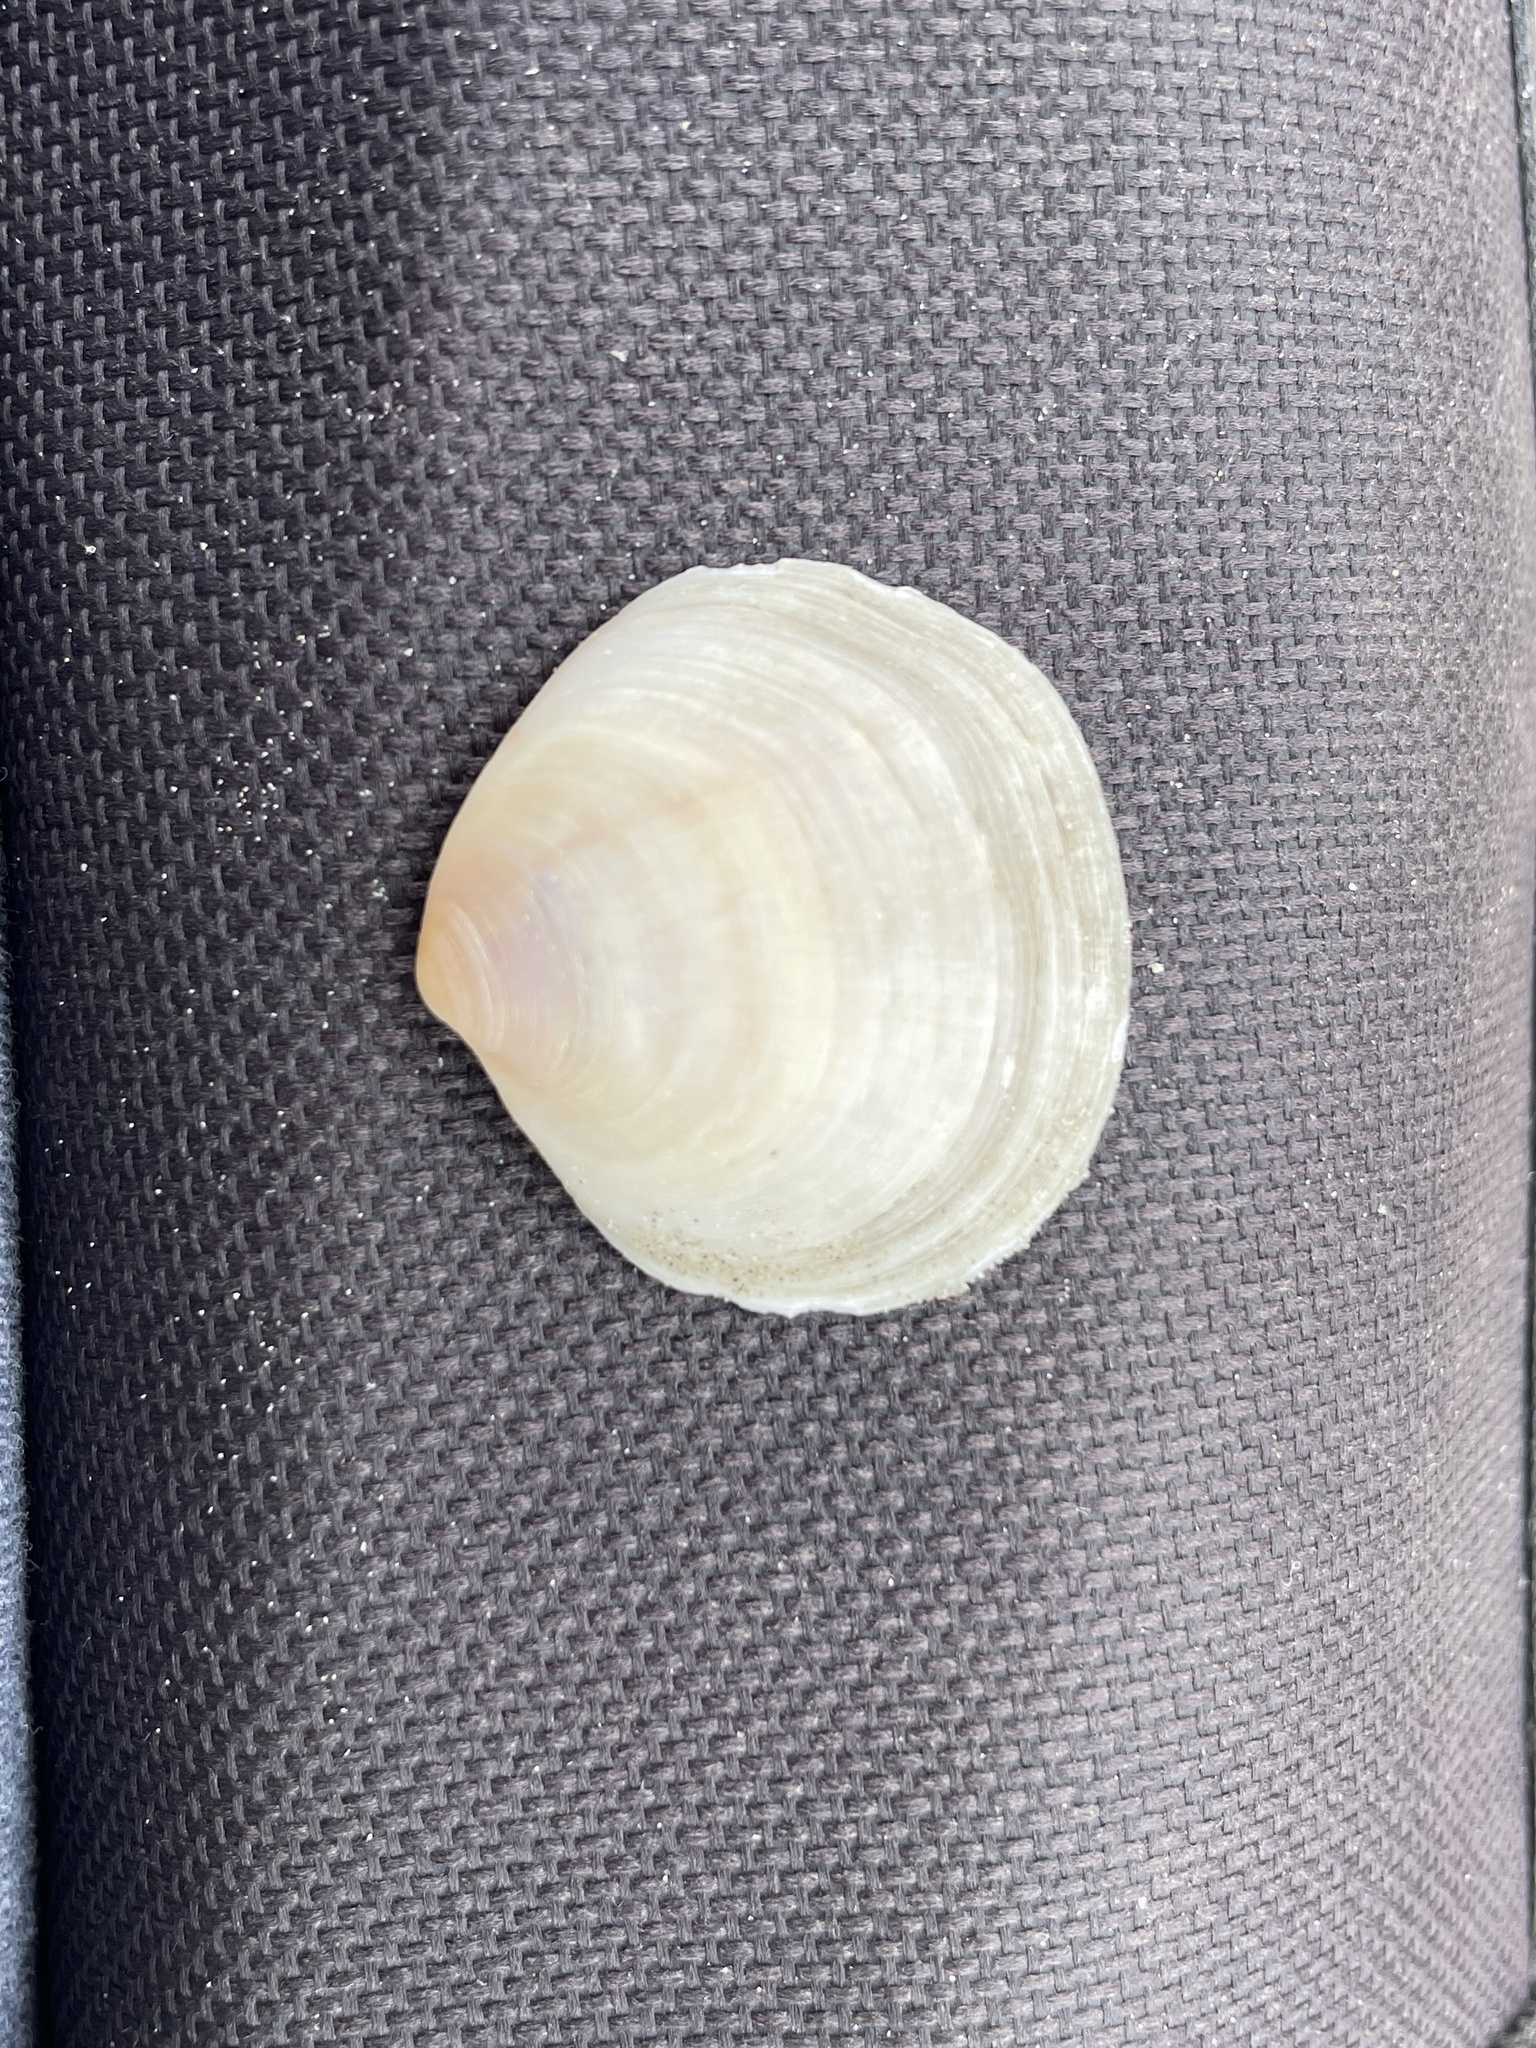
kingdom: Animalia
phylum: Mollusca
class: Bivalvia
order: Cardiida
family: Semelidae
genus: Semele
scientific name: Semele proficua
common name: White atlantic semele
